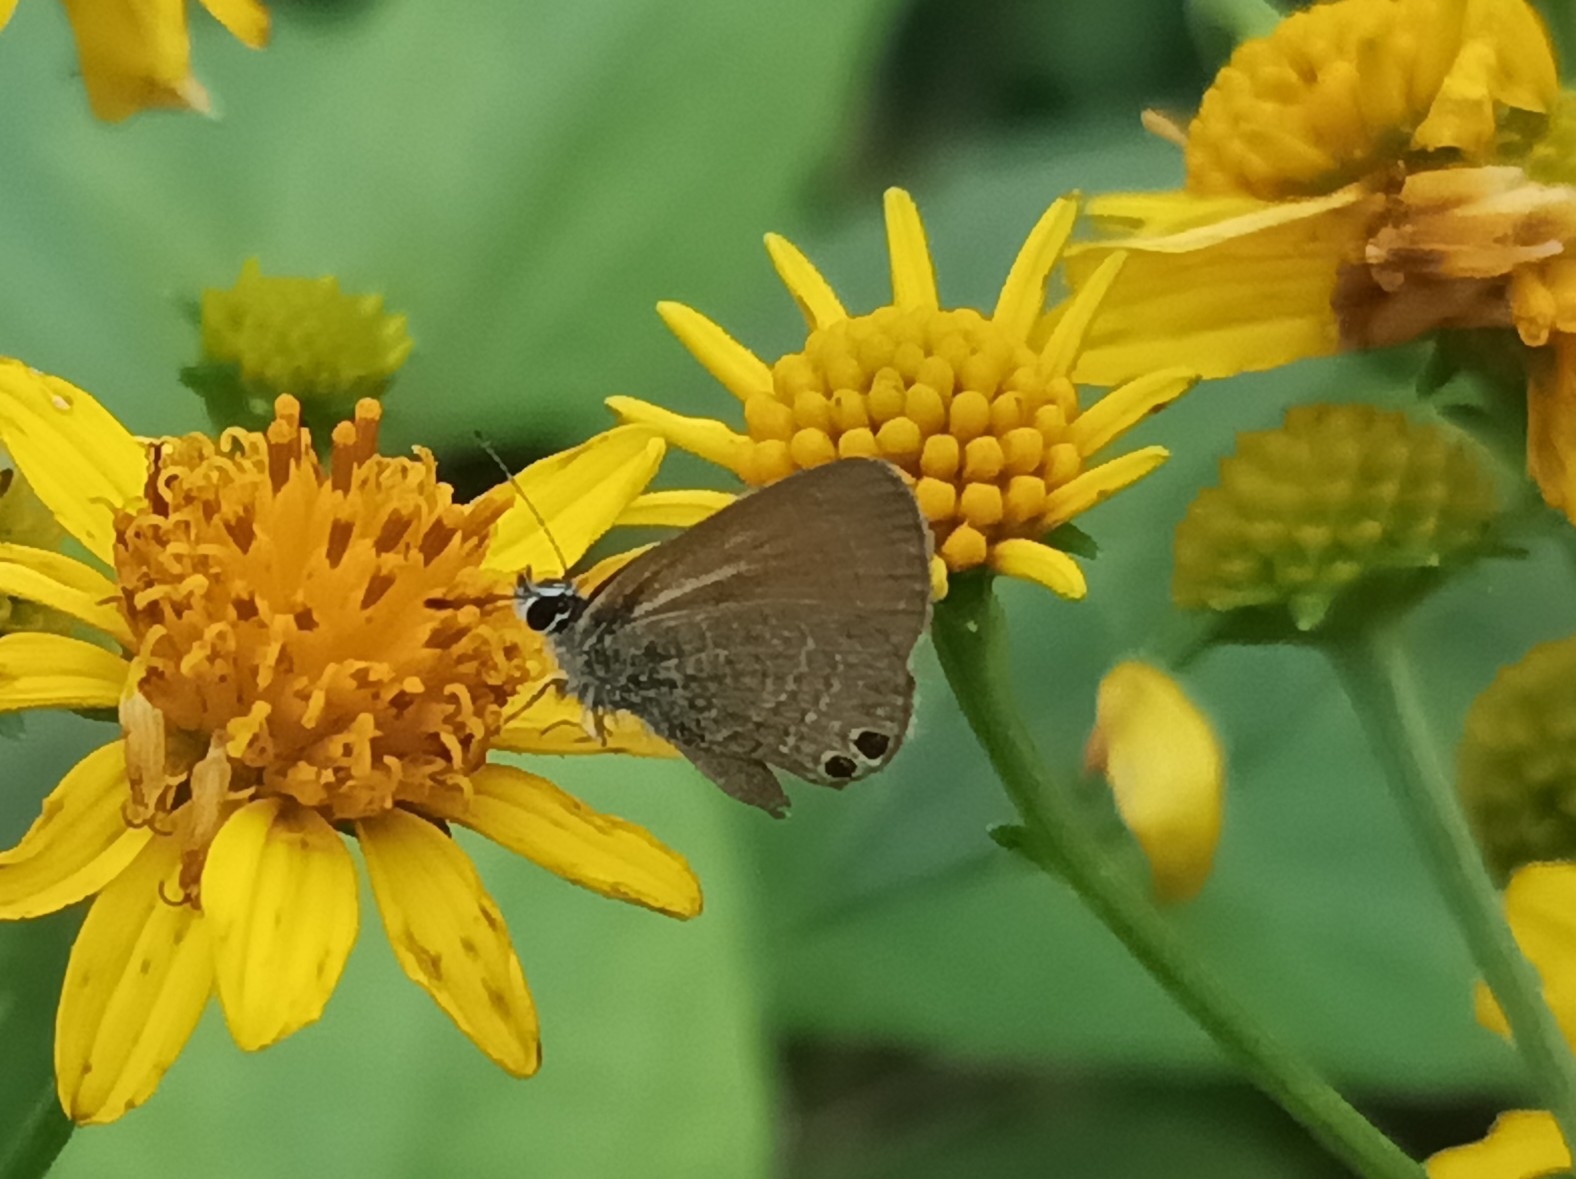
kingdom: Animalia
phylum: Arthropoda
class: Insecta
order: Lepidoptera
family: Lycaenidae
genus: Nacaduba
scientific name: Nacaduba biocellata
